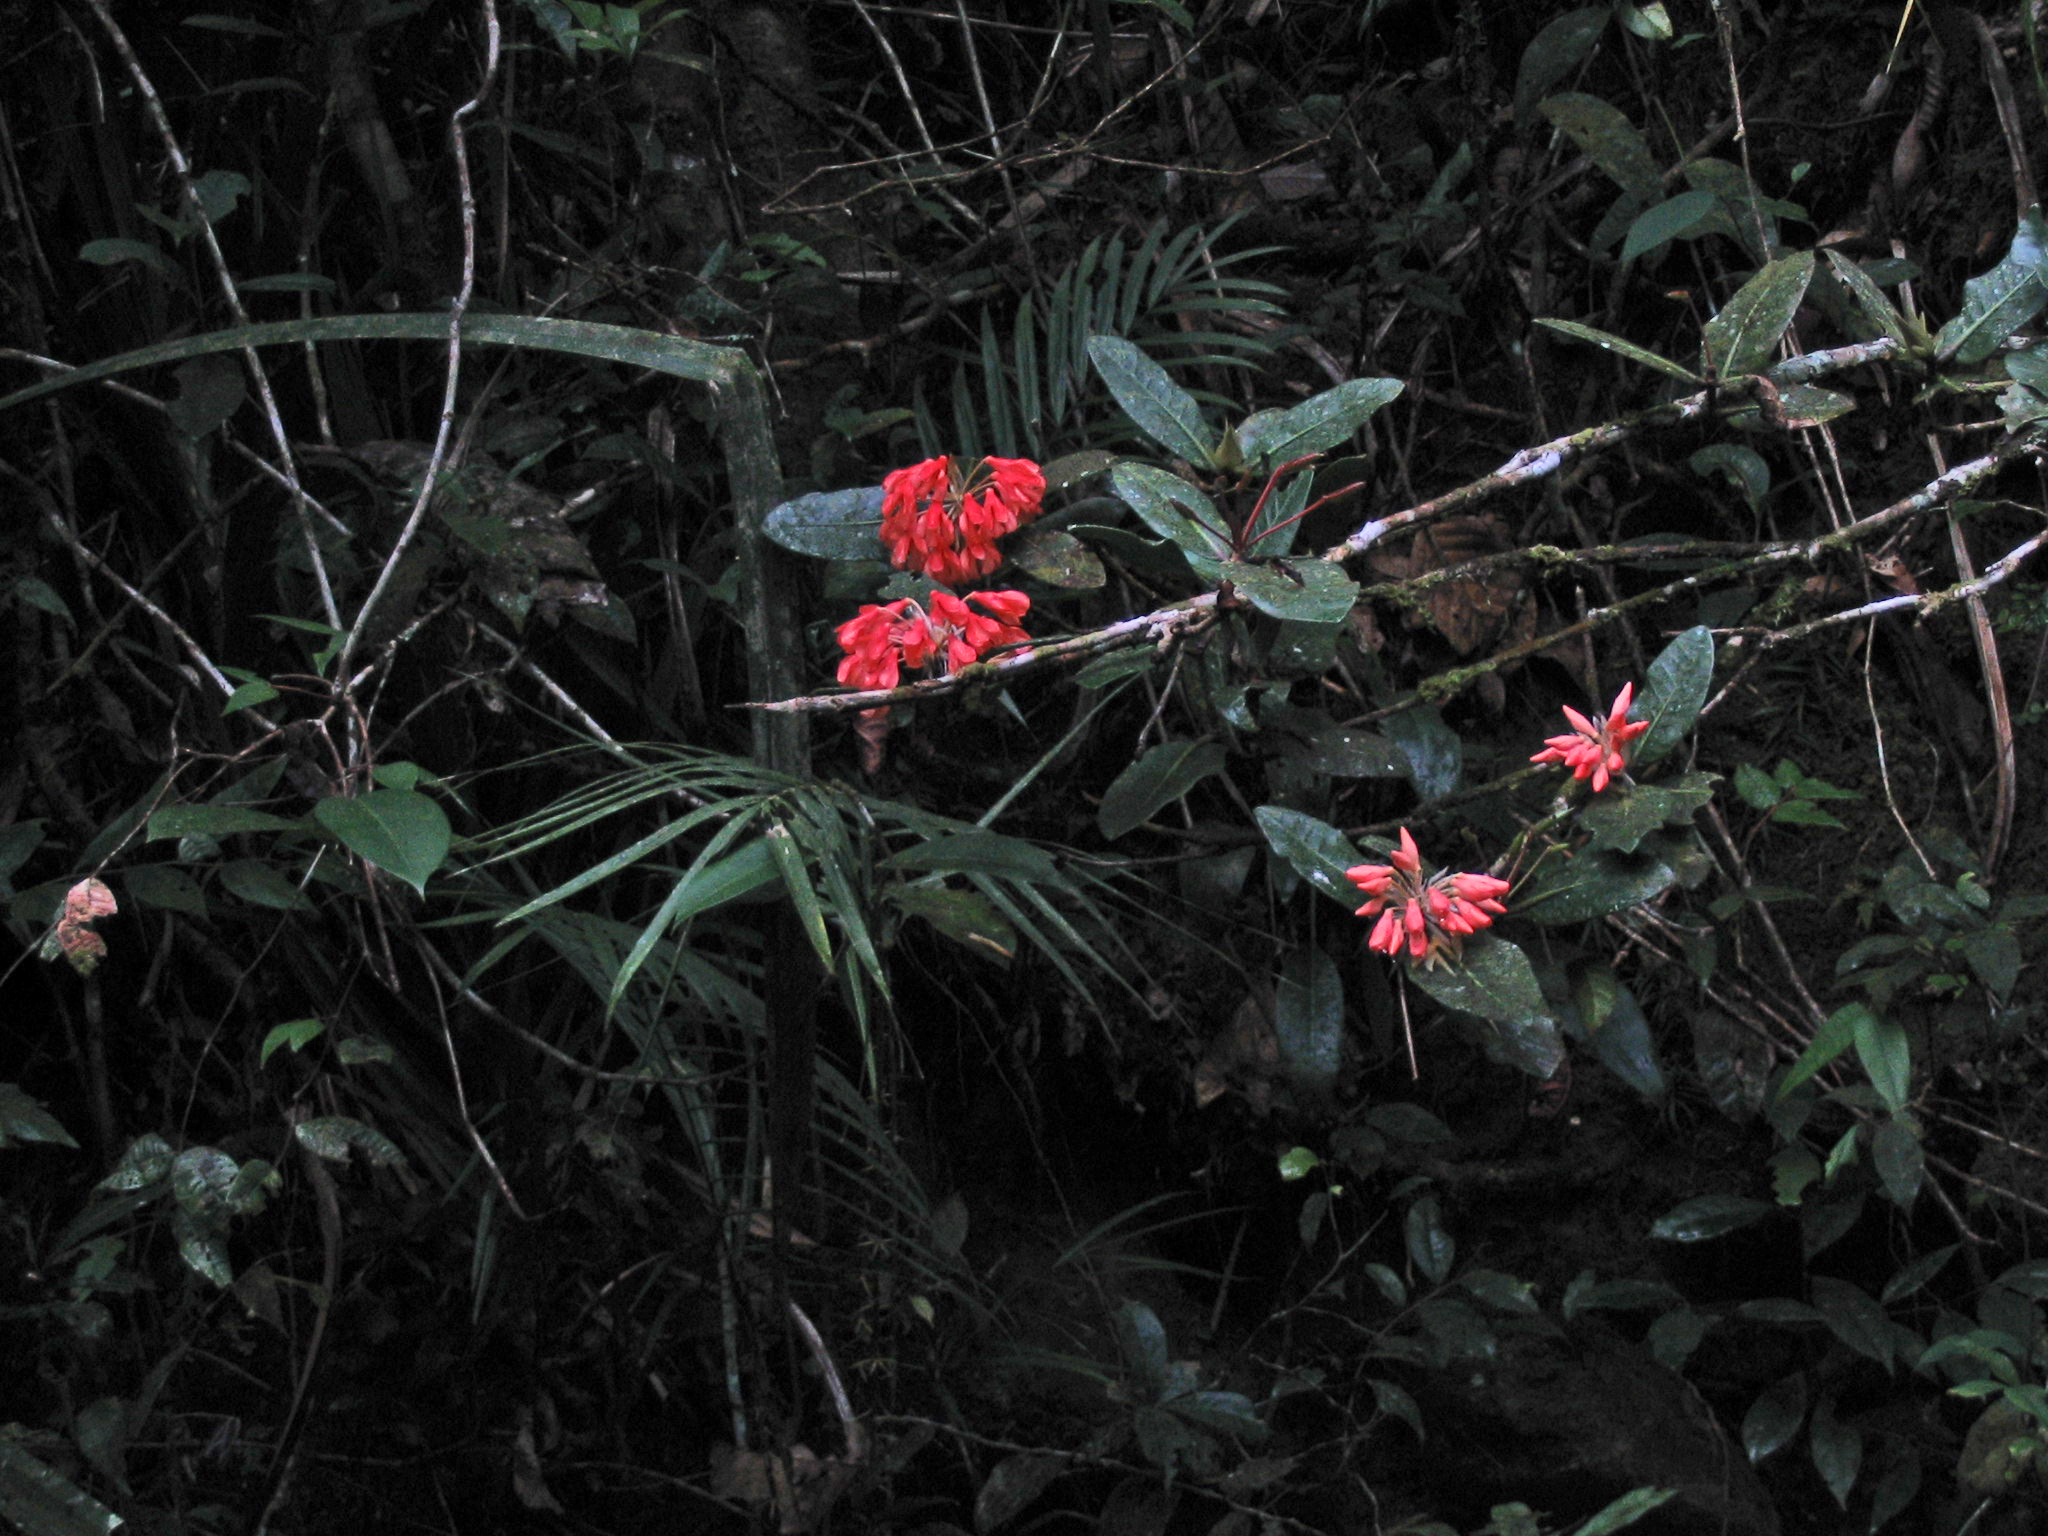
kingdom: Plantae
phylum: Tracheophyta
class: Magnoliopsida
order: Ericales
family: Ericaceae
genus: Rhododendron
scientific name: Rhododendron crassifolium
